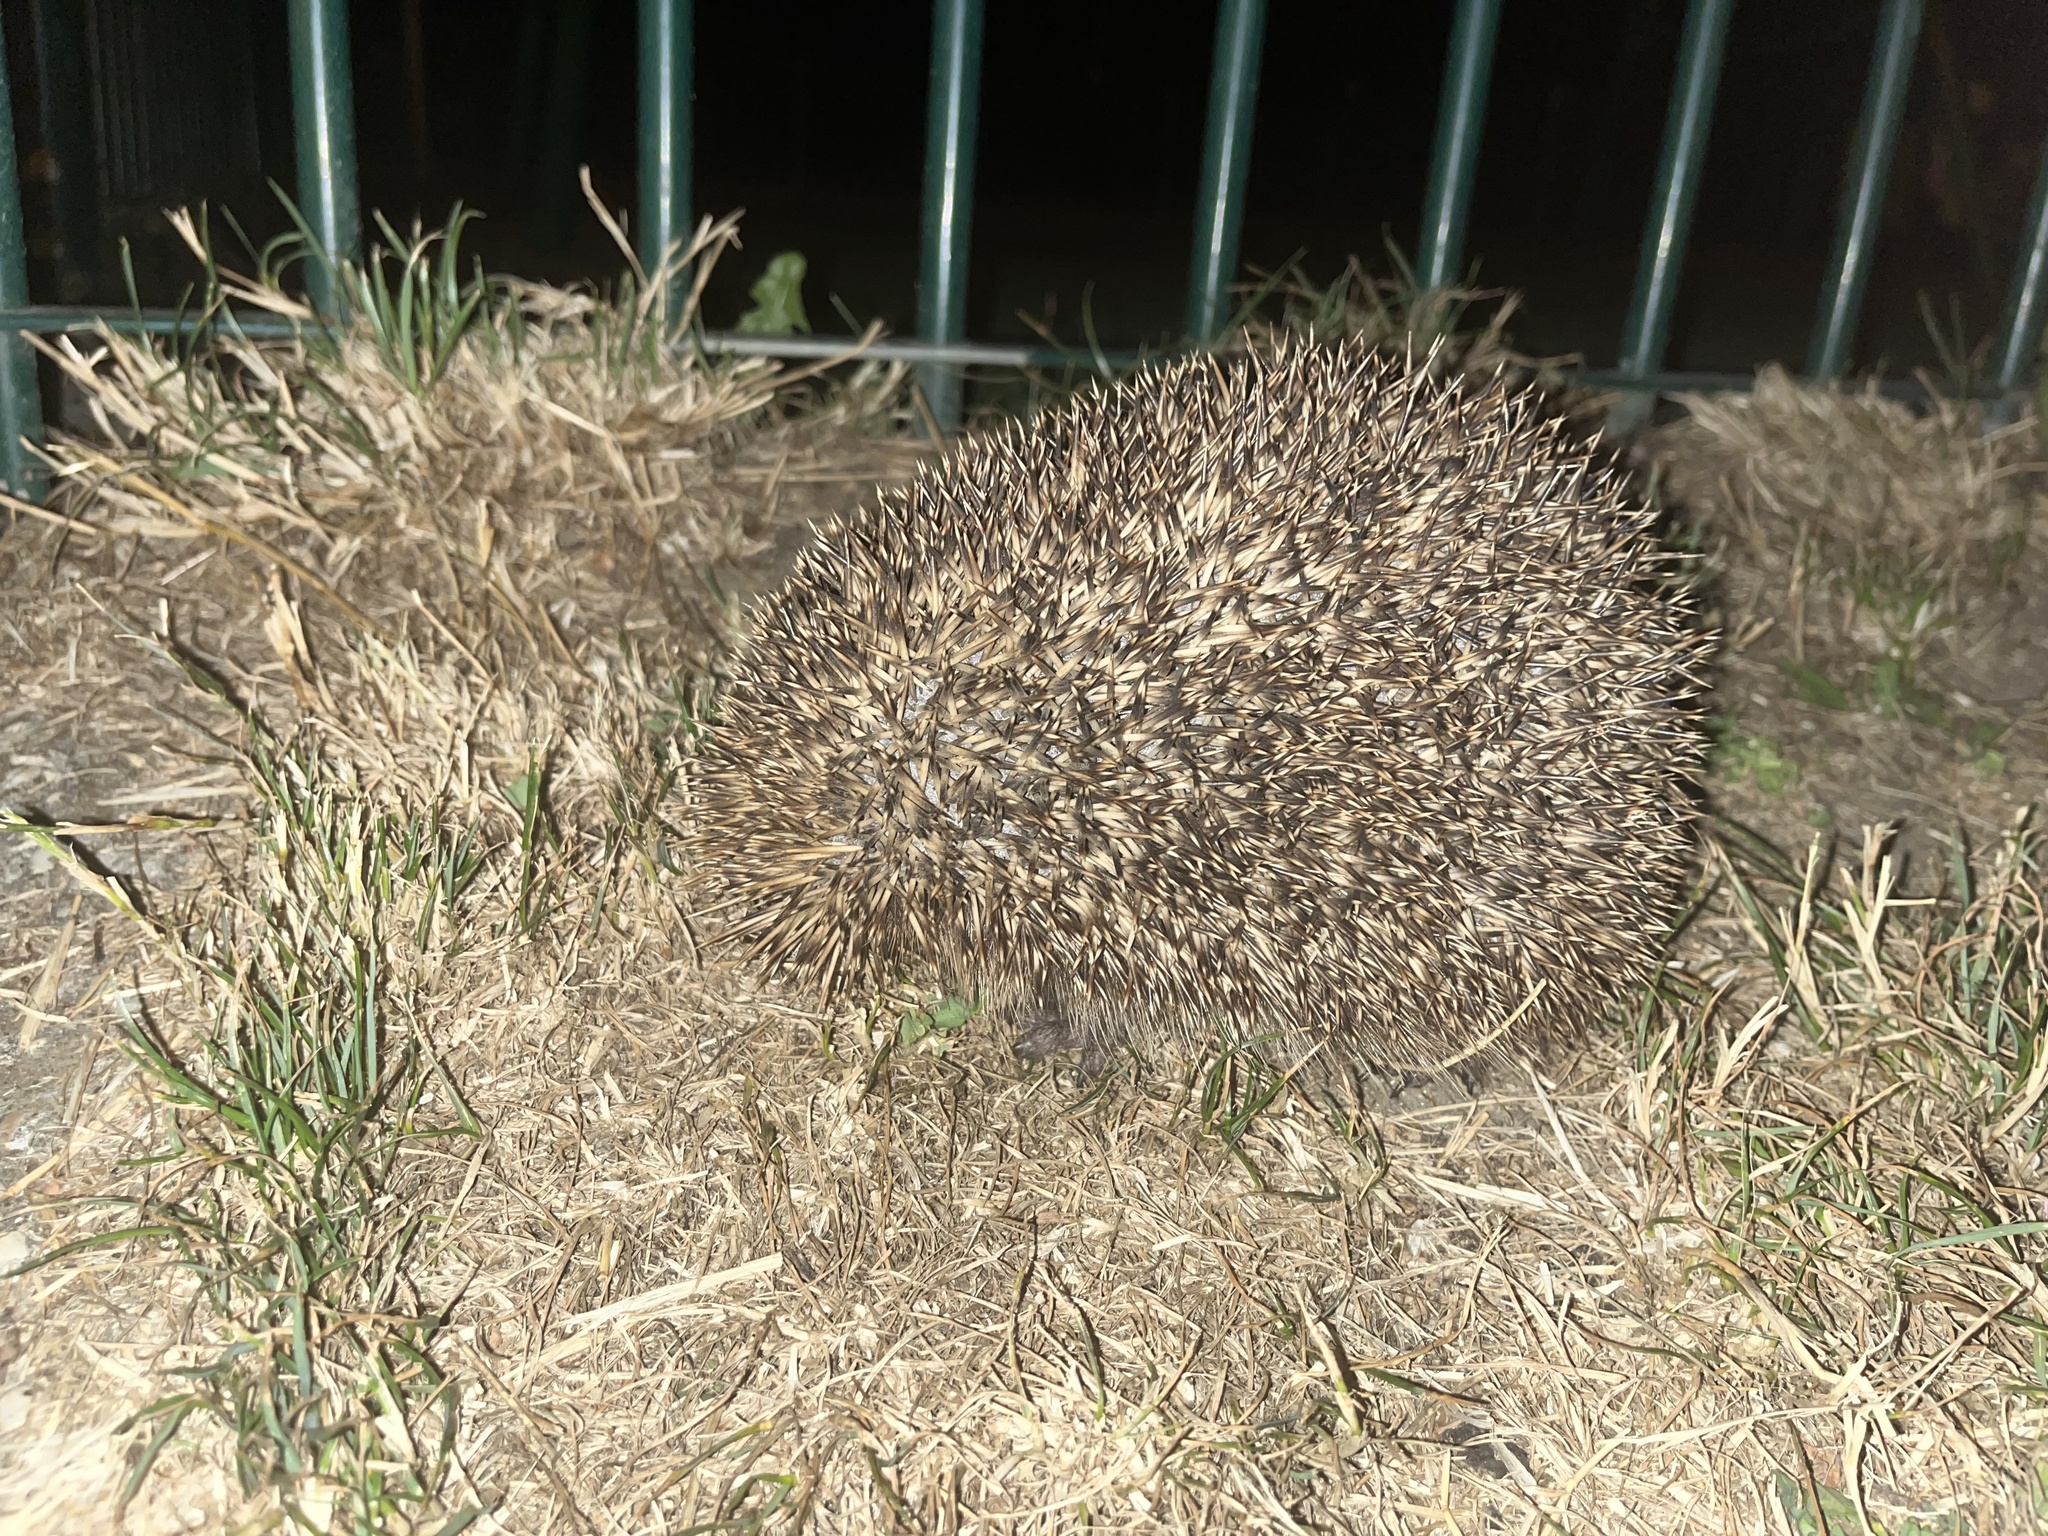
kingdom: Animalia
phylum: Chordata
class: Mammalia
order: Erinaceomorpha
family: Erinaceidae
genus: Erinaceus
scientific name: Erinaceus europaeus
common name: West european hedgehog
